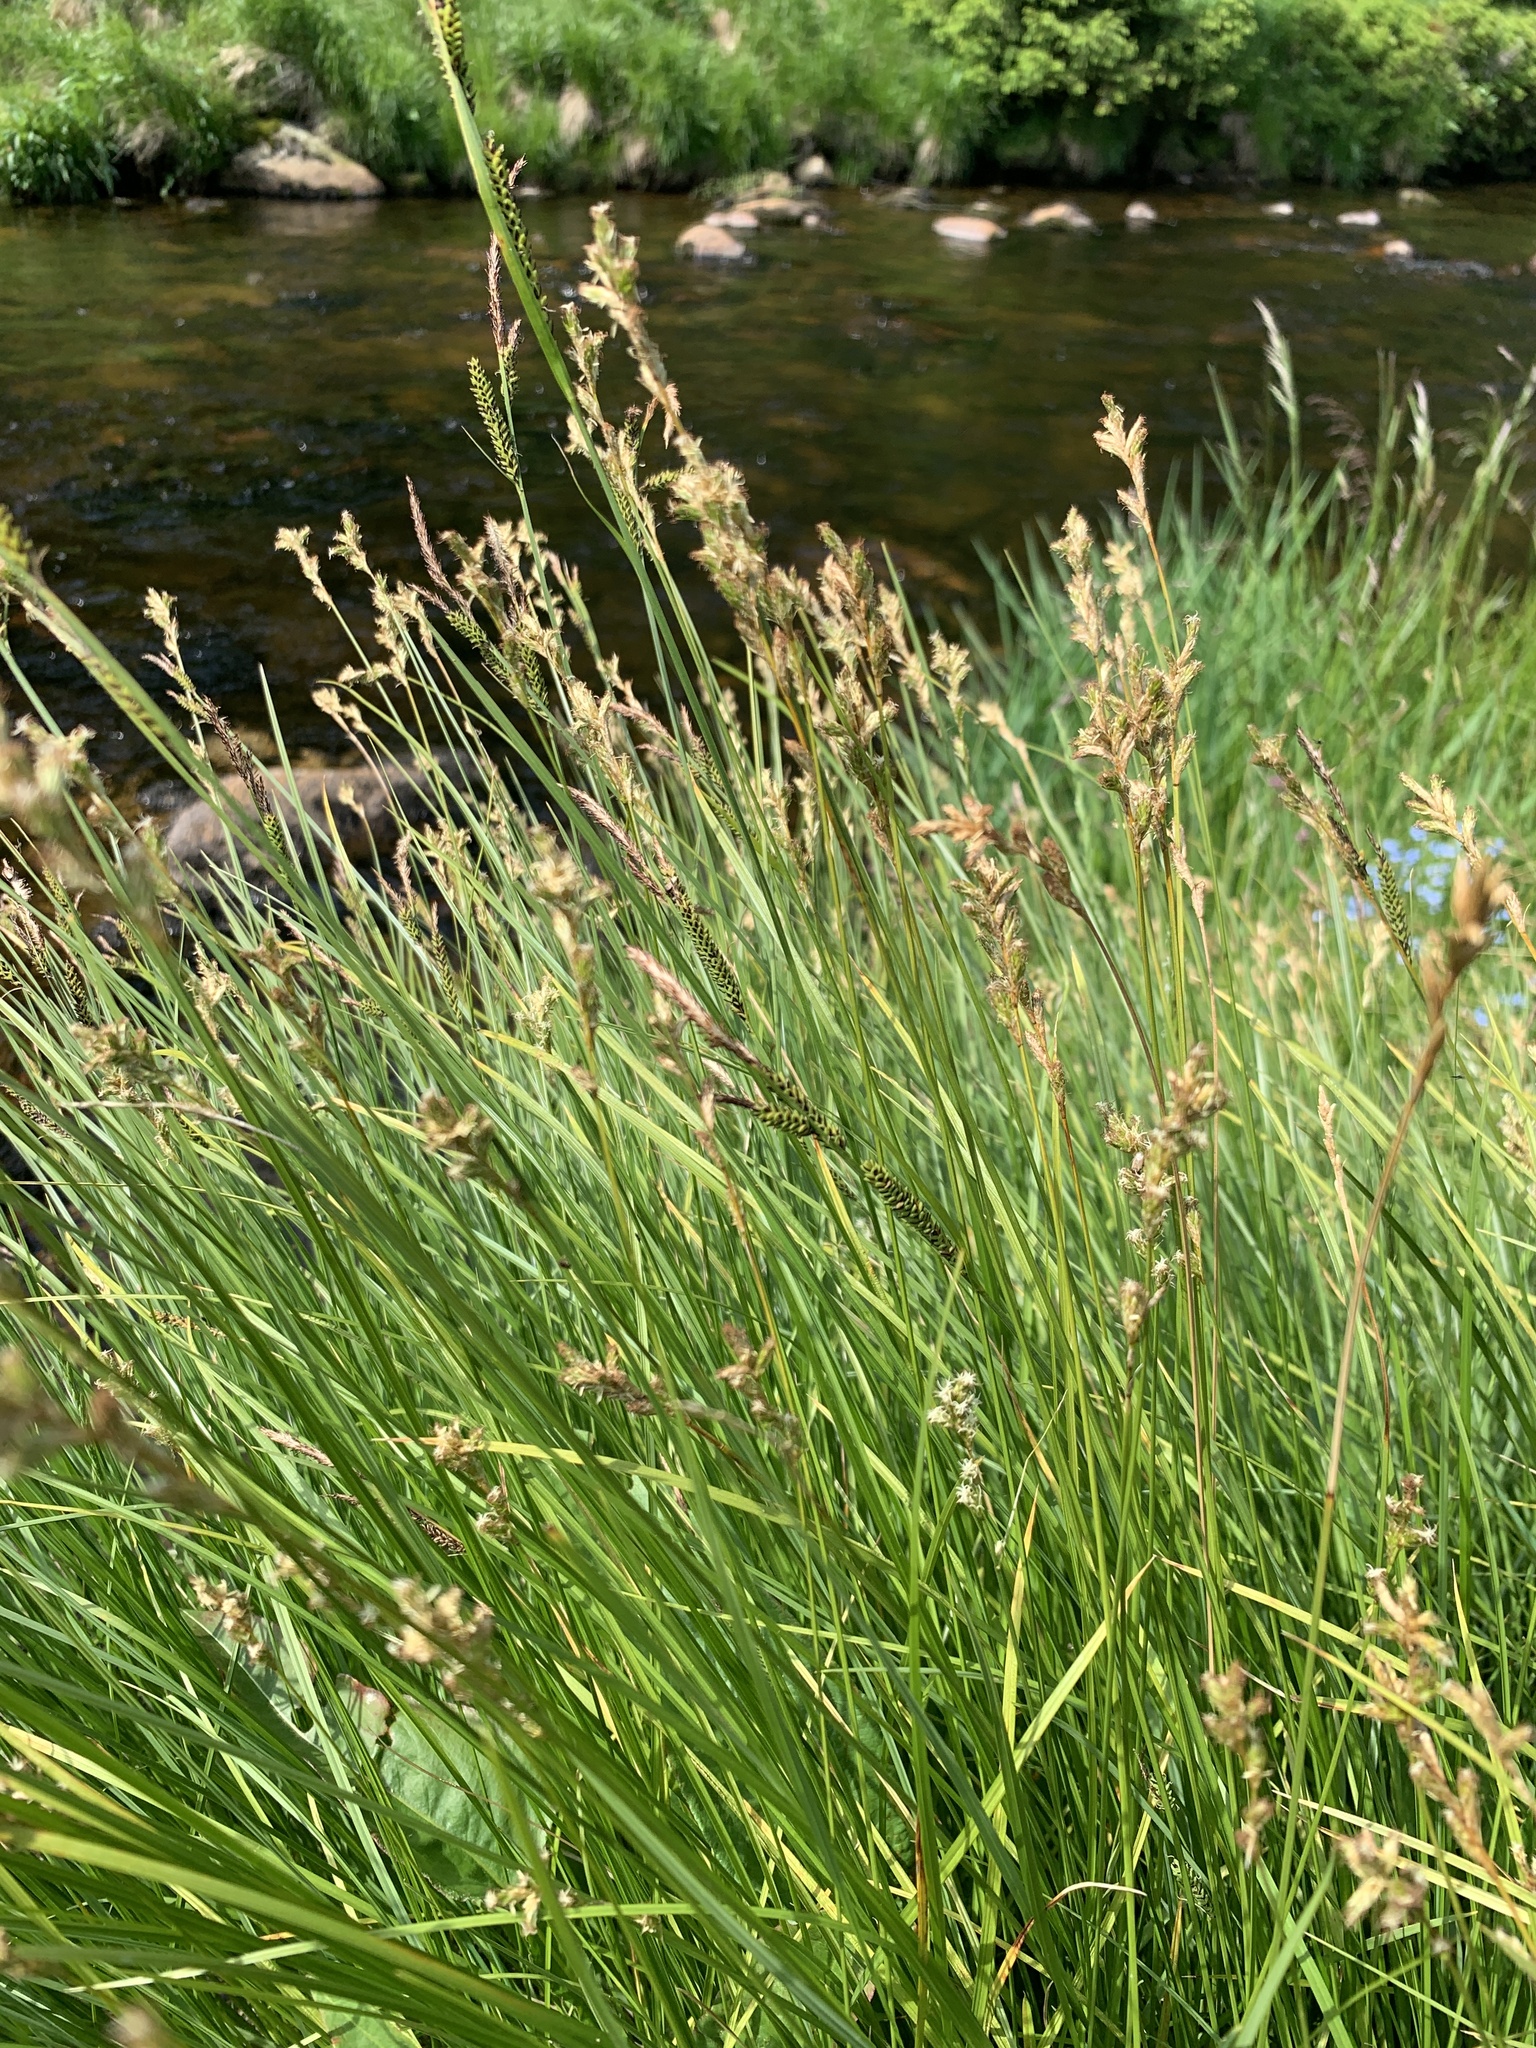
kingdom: Plantae
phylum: Tracheophyta
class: Liliopsida
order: Poales
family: Cyperaceae
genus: Carex
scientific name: Carex brizoides
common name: Quaking-grass sedge
